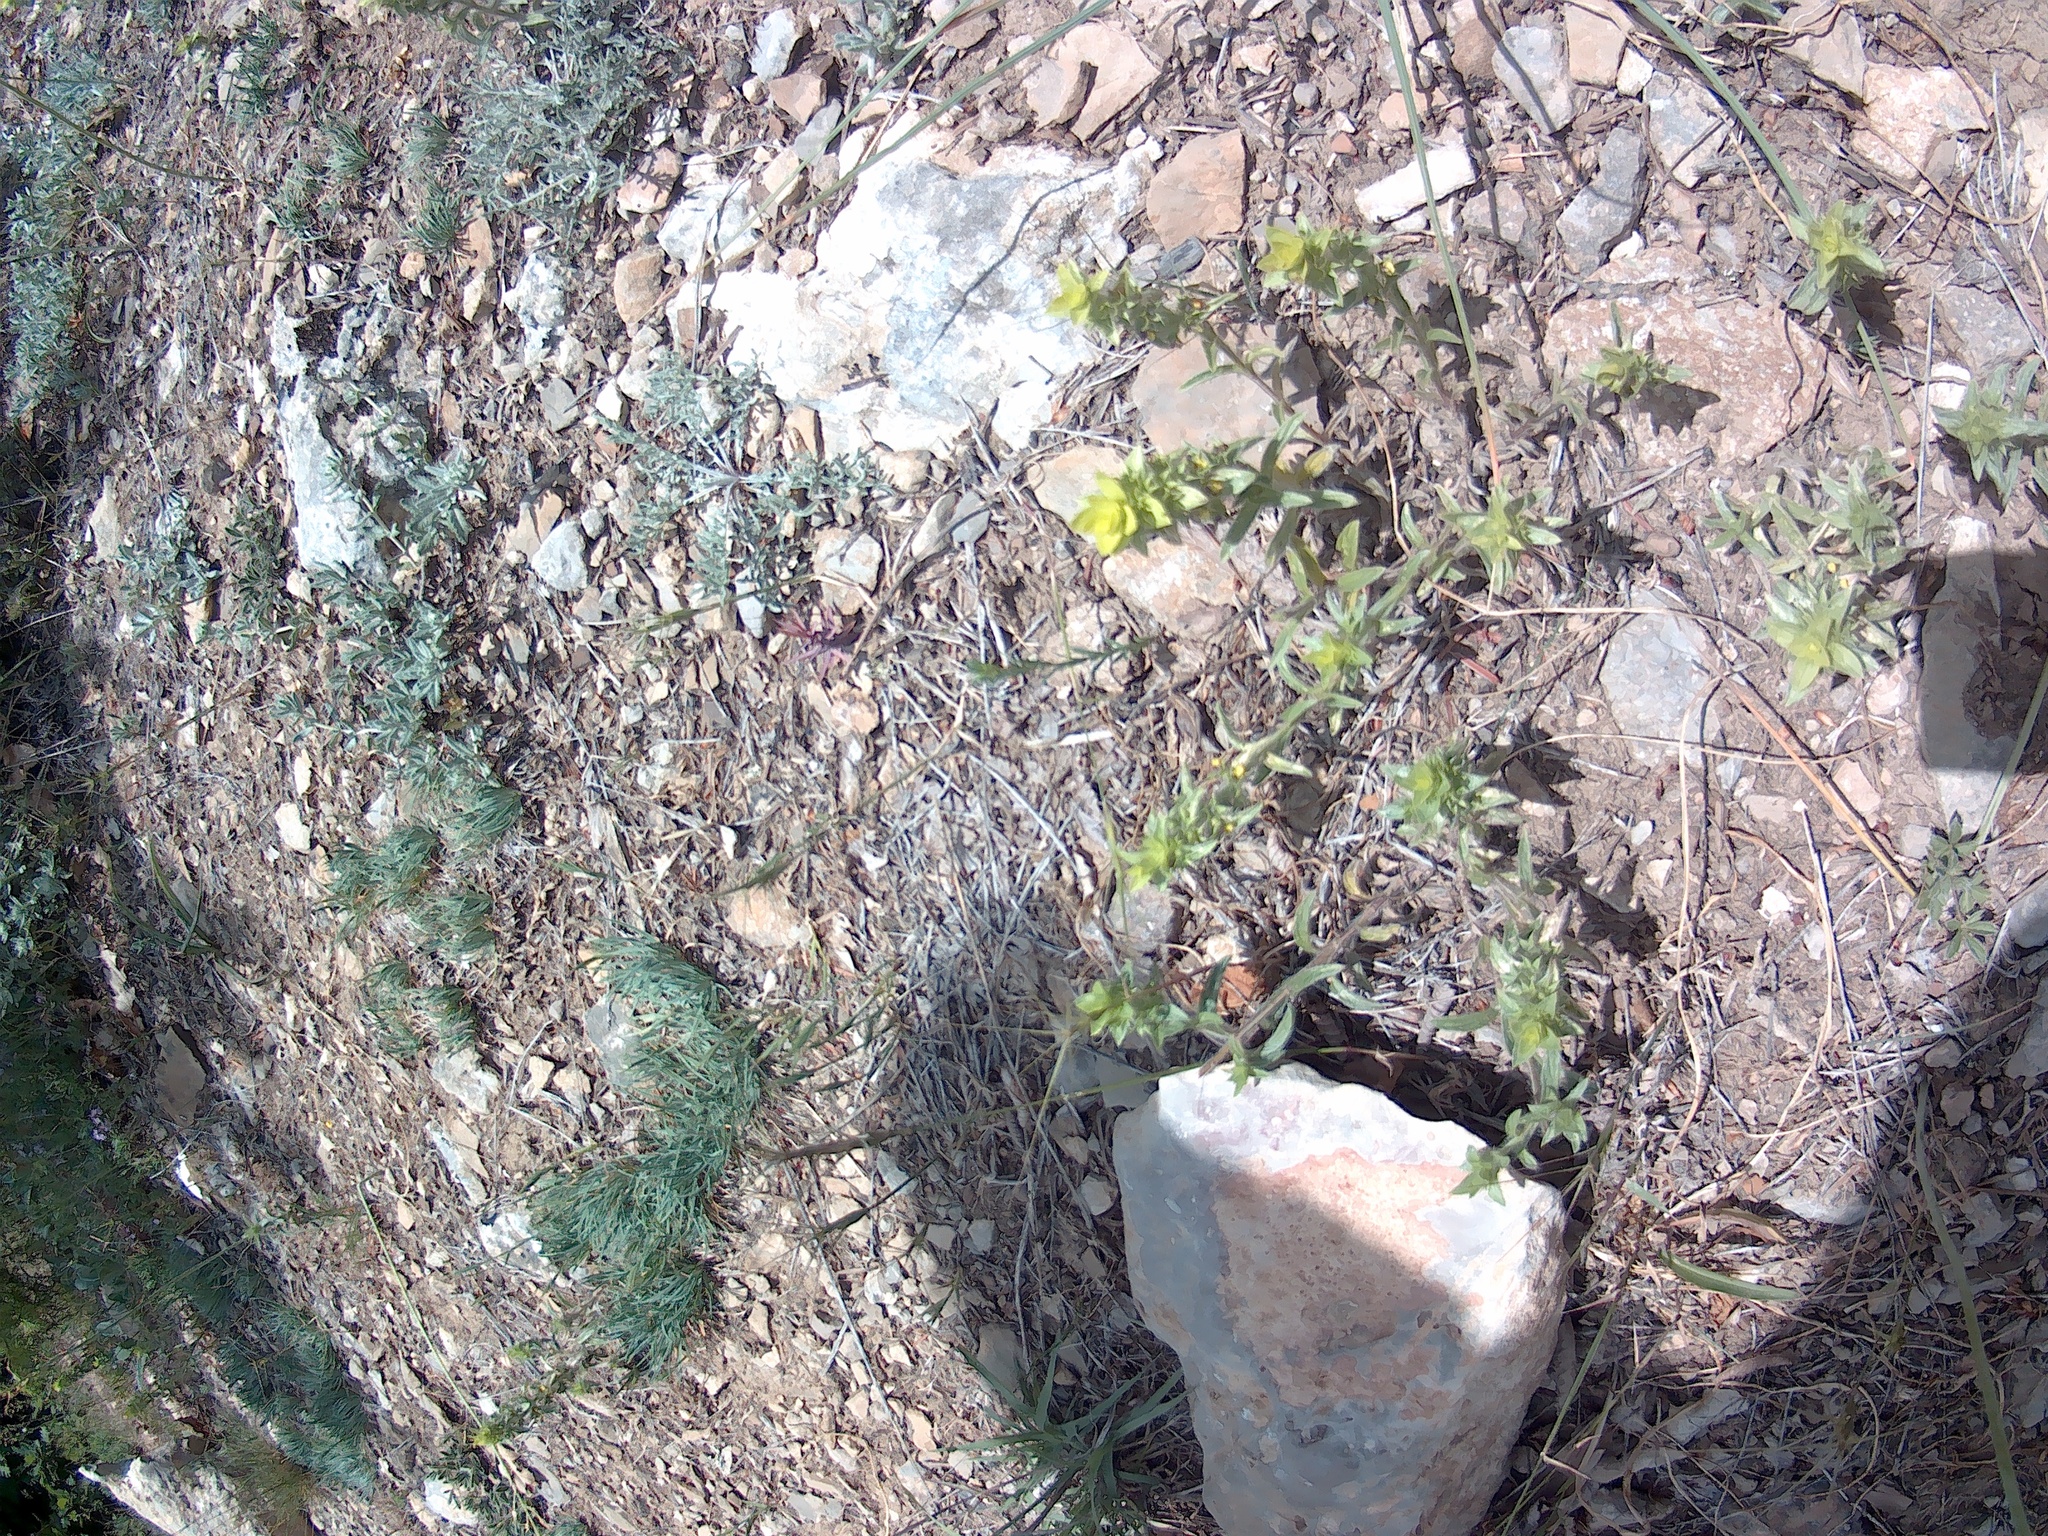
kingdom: Plantae
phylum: Tracheophyta
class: Magnoliopsida
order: Lamiales
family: Lamiaceae
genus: Sideritis
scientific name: Sideritis montana
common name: Mountain ironwort
